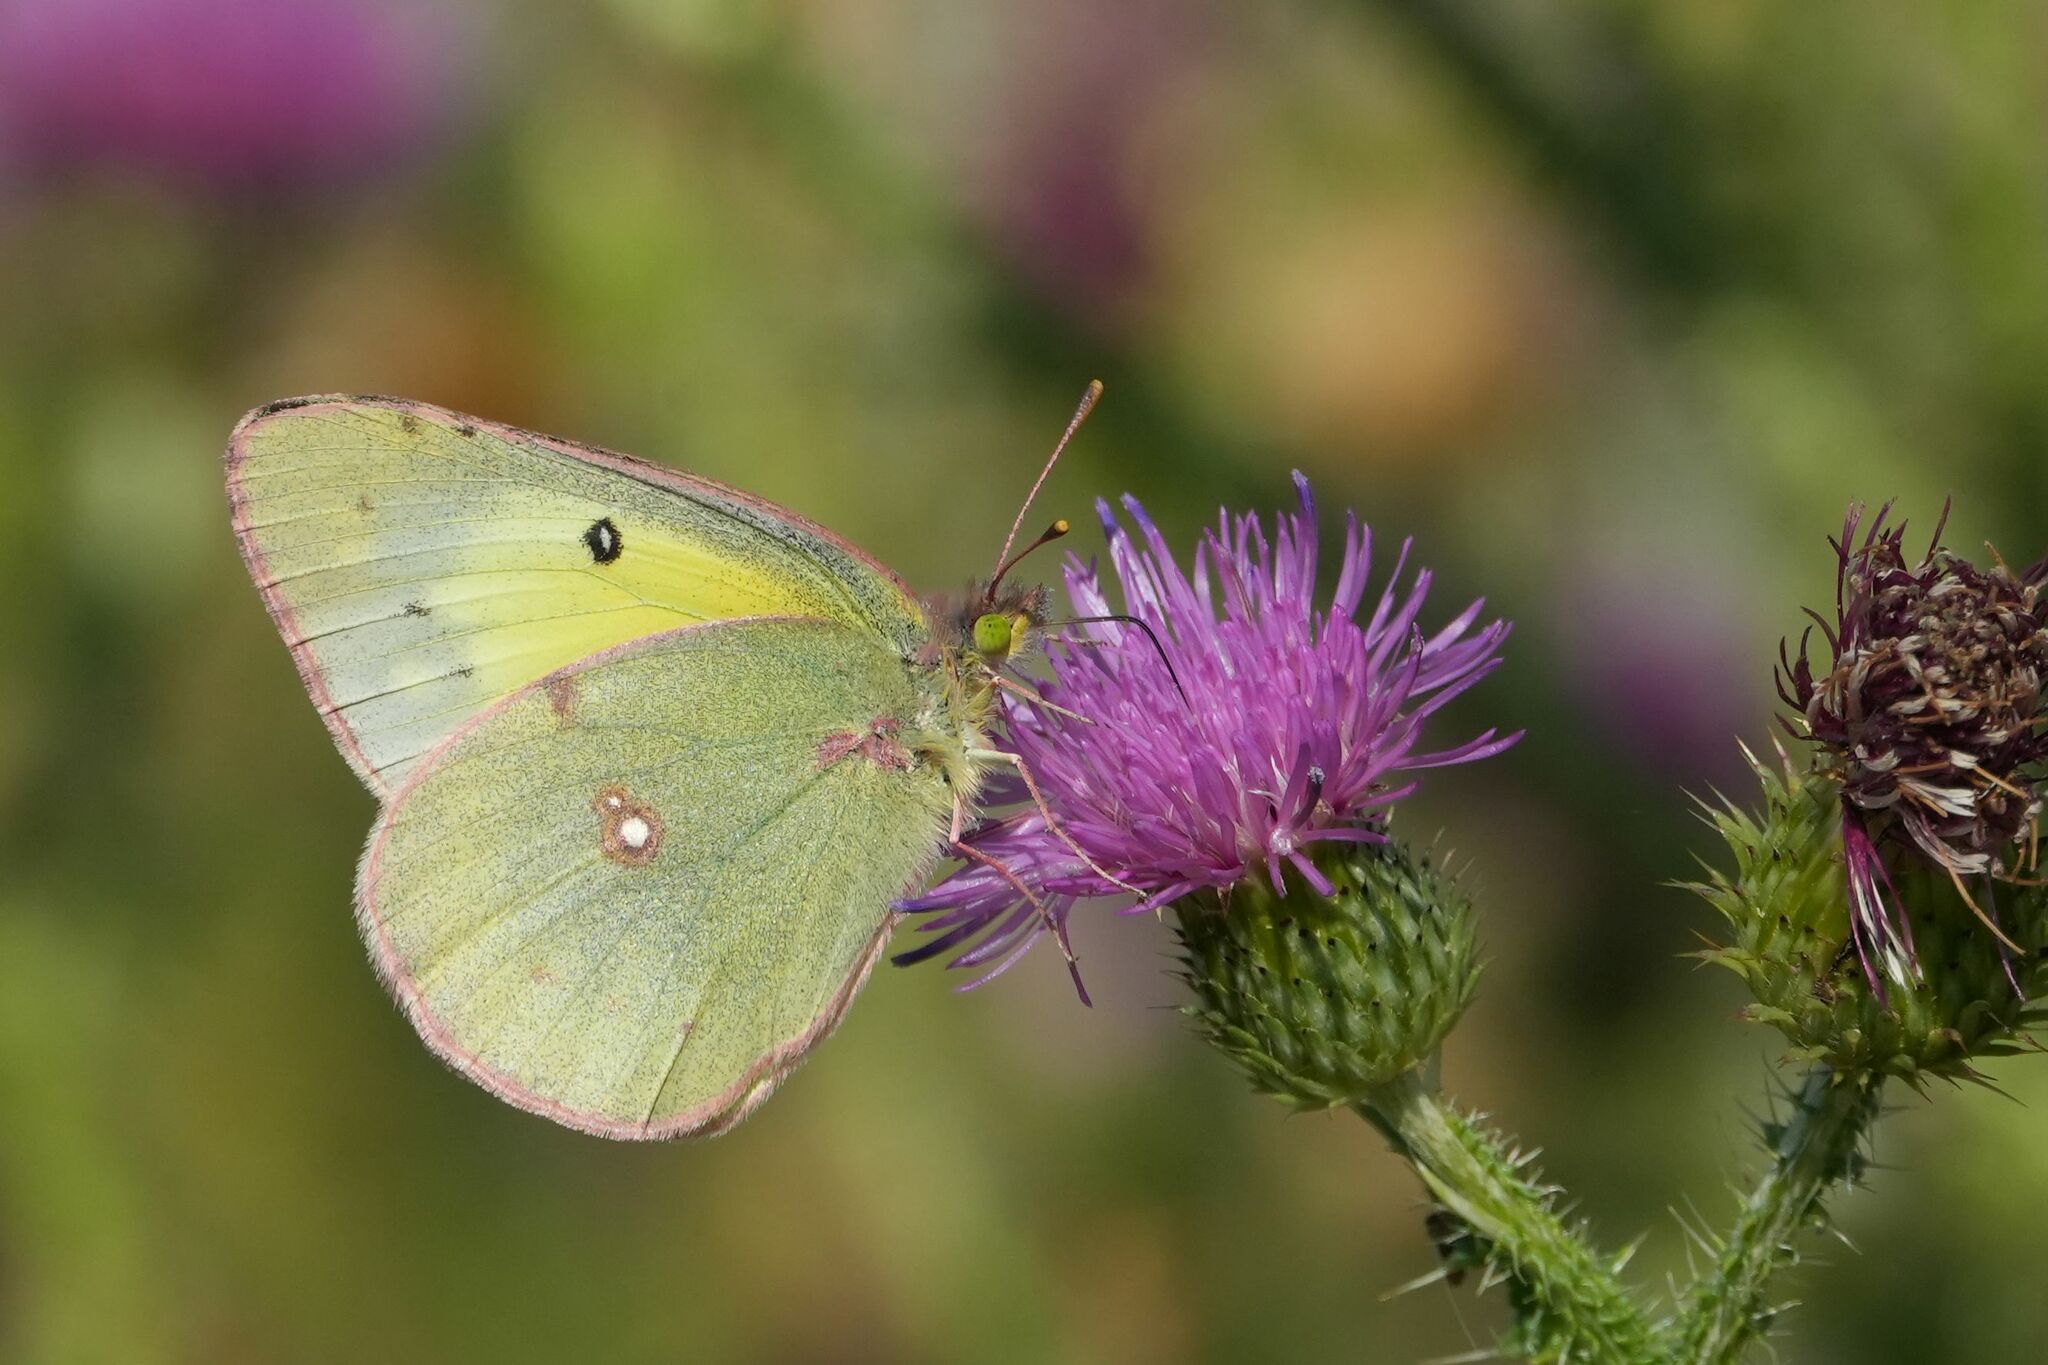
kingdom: Animalia
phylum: Arthropoda
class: Insecta
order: Lepidoptera
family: Pieridae
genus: Colias
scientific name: Colias philodice
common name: Clouded sulphur
